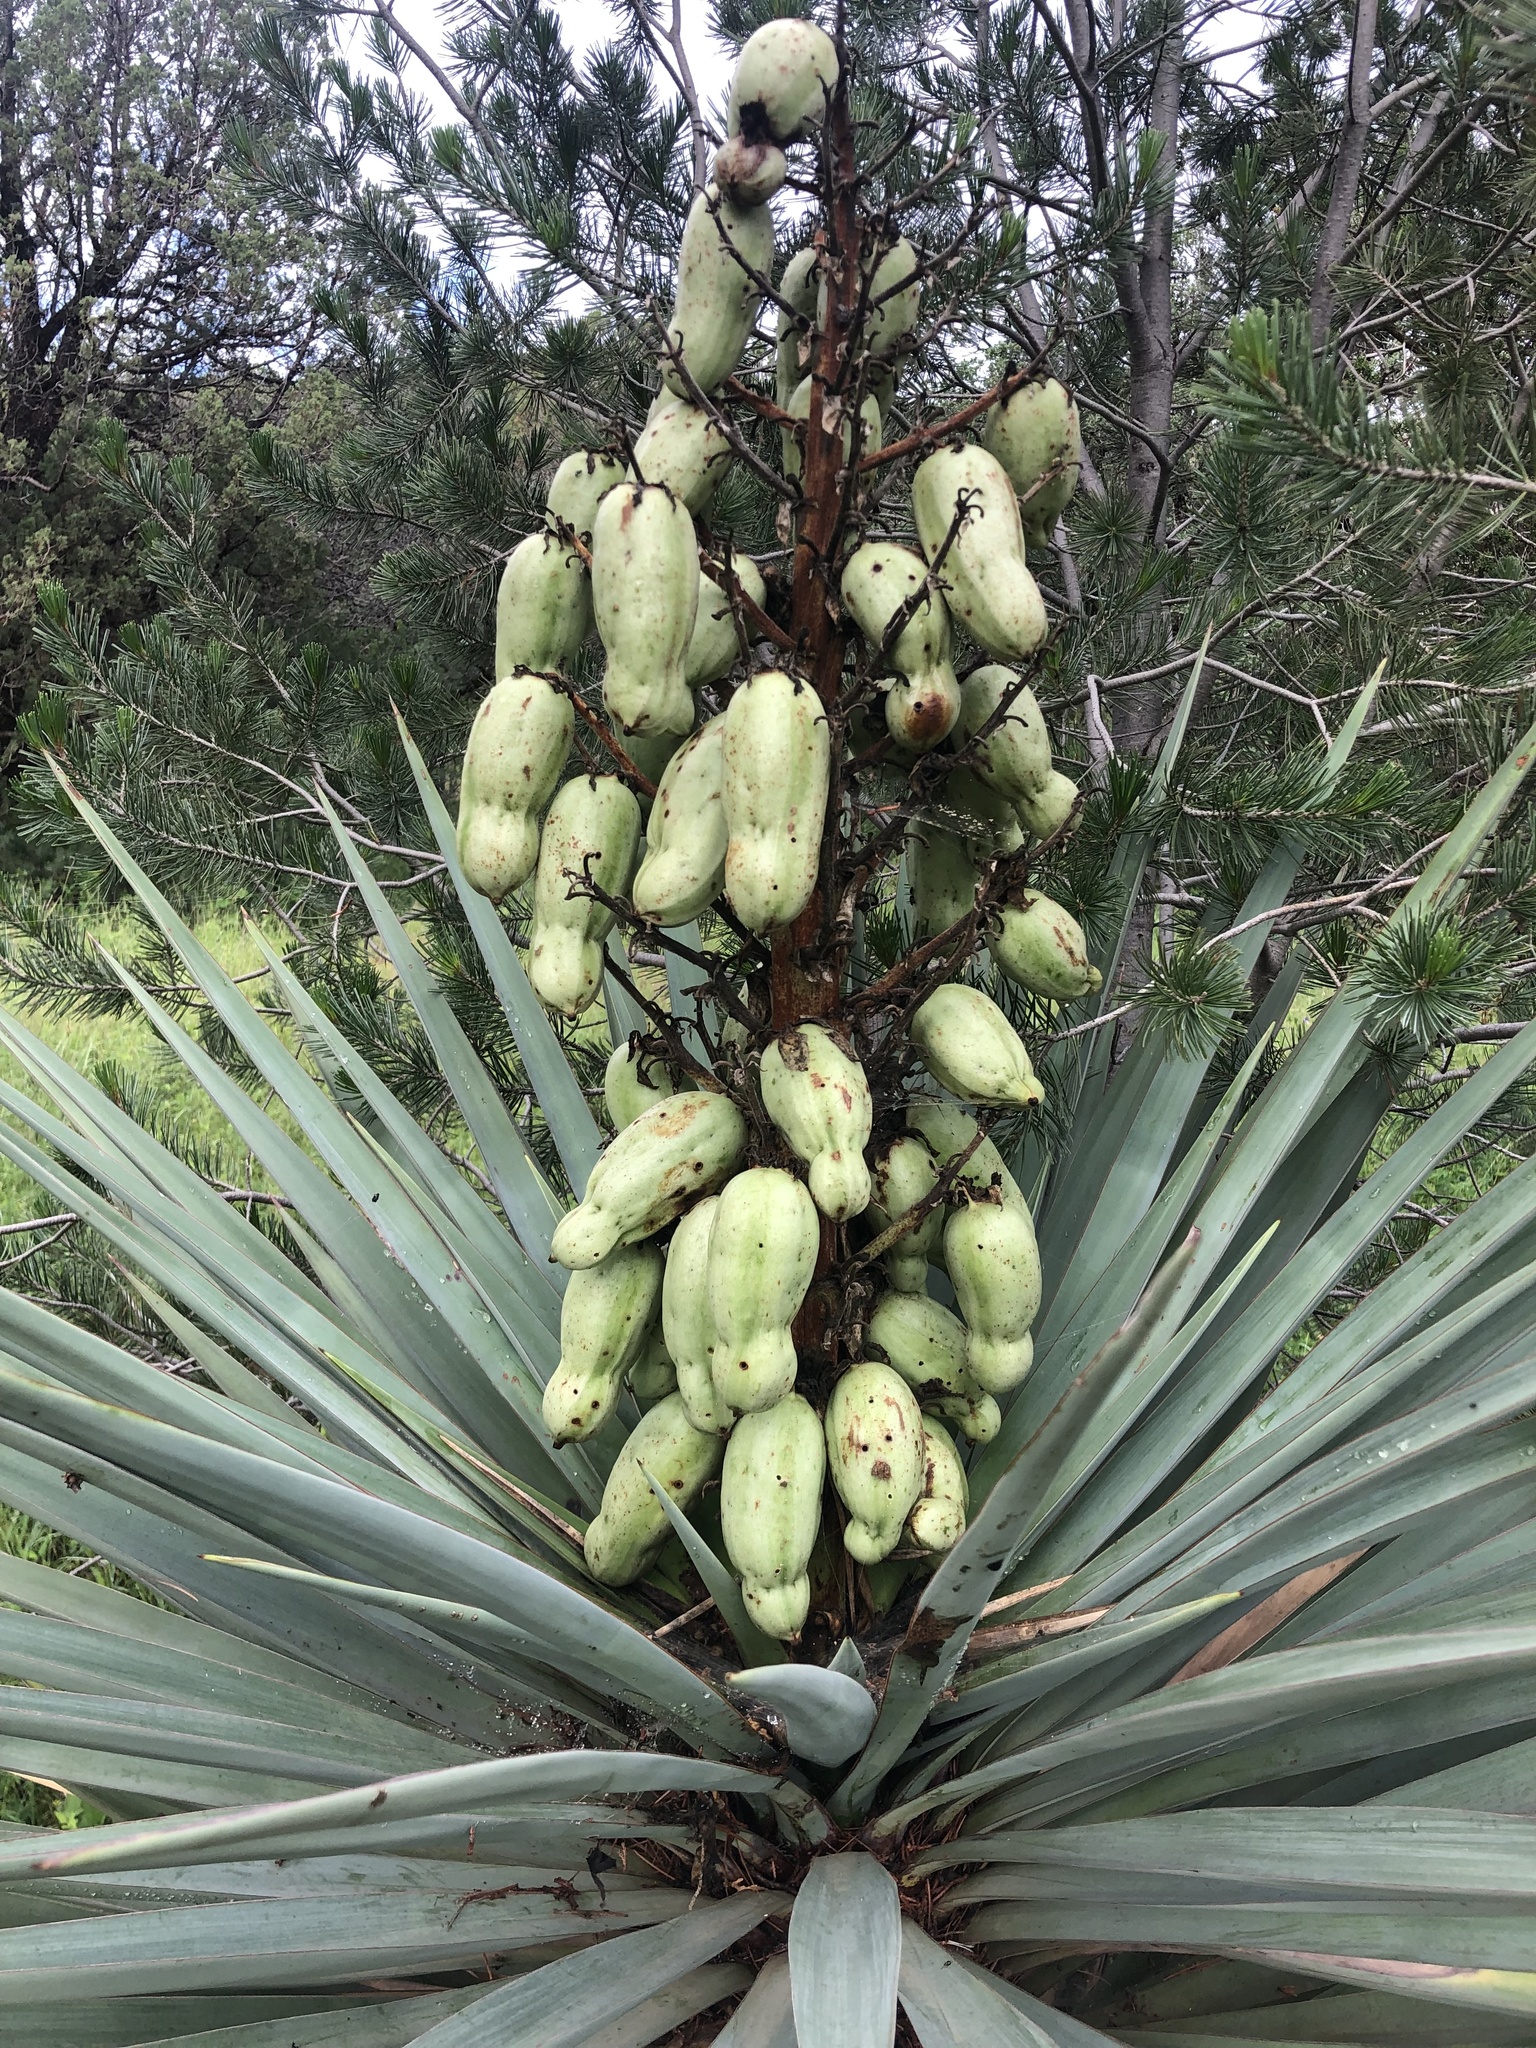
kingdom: Plantae
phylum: Tracheophyta
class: Liliopsida
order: Asparagales
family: Asparagaceae
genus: Yucca
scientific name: Yucca madrensis
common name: Hoary yucca
